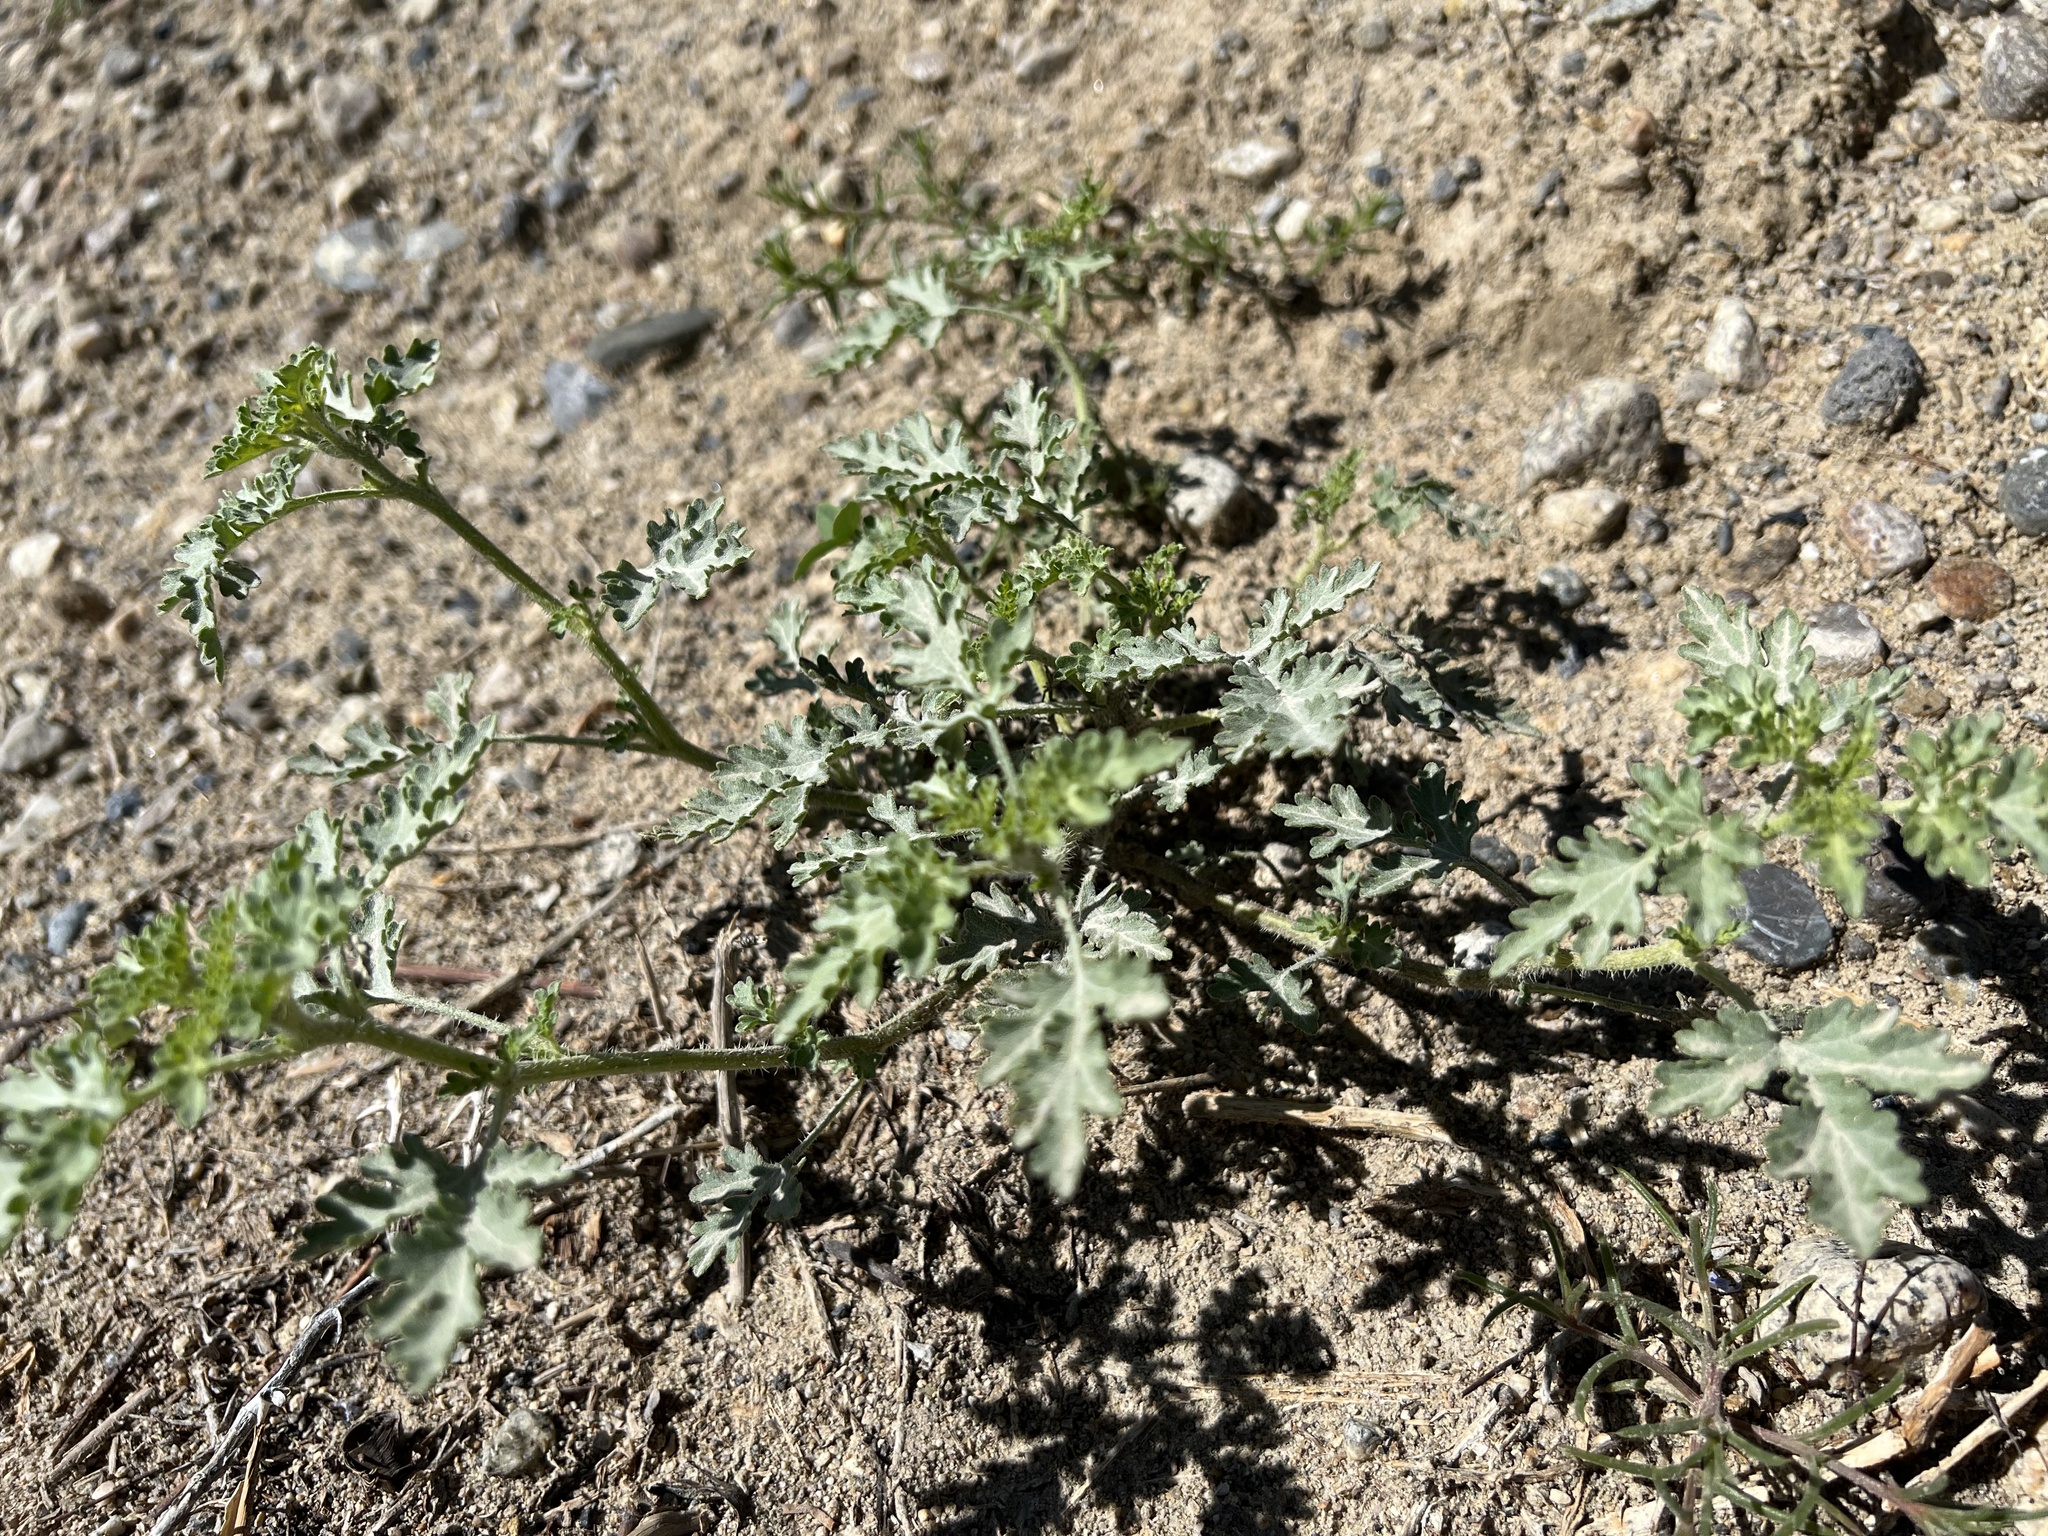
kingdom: Plantae
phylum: Tracheophyta
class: Magnoliopsida
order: Asterales
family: Asteraceae
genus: Ambrosia
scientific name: Ambrosia acanthicarpa
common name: Hooker's bur ragweed
